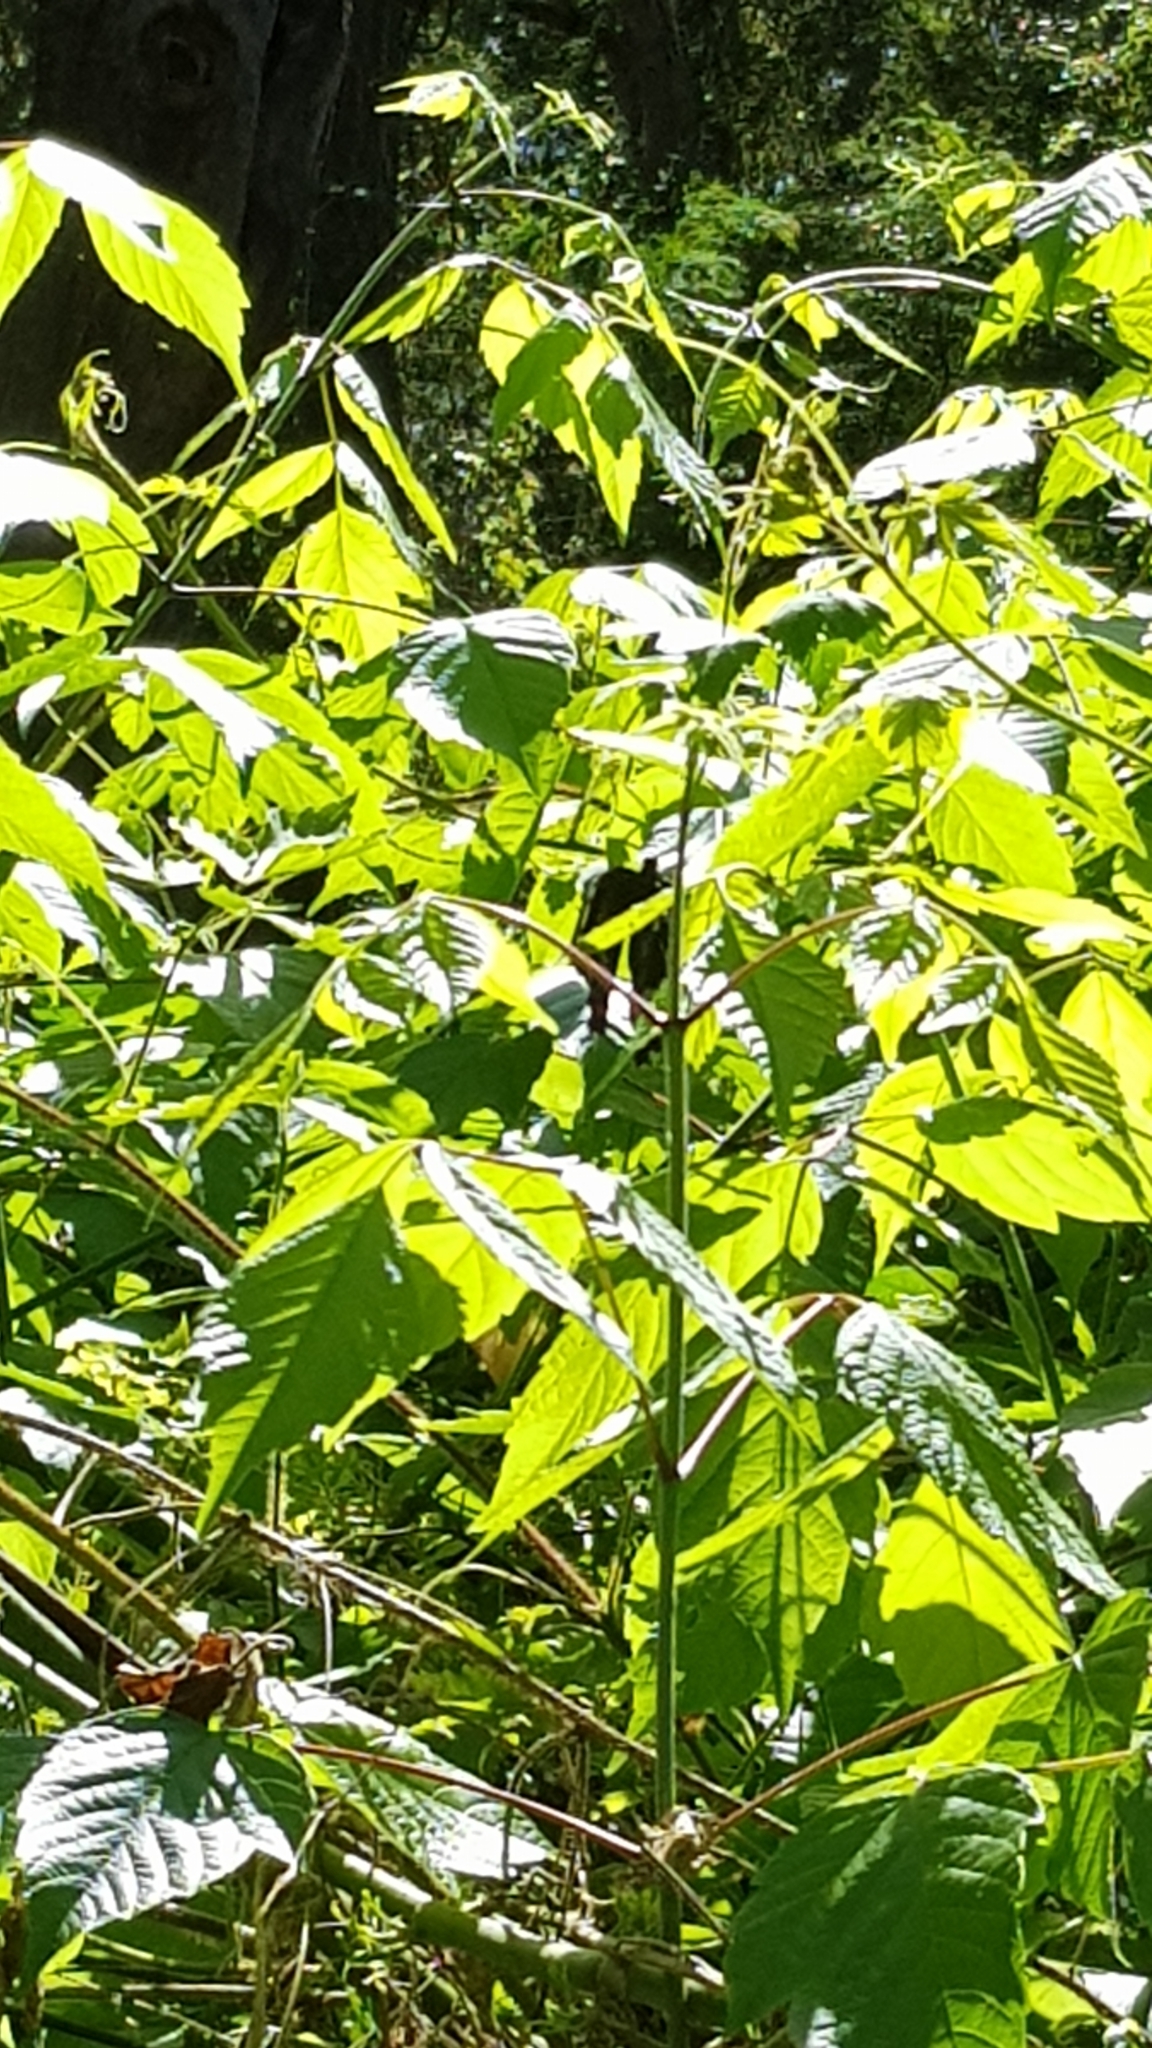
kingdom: Animalia
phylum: Arthropoda
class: Insecta
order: Lepidoptera
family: Papilionidae
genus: Papilio
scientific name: Papilio aegeus
